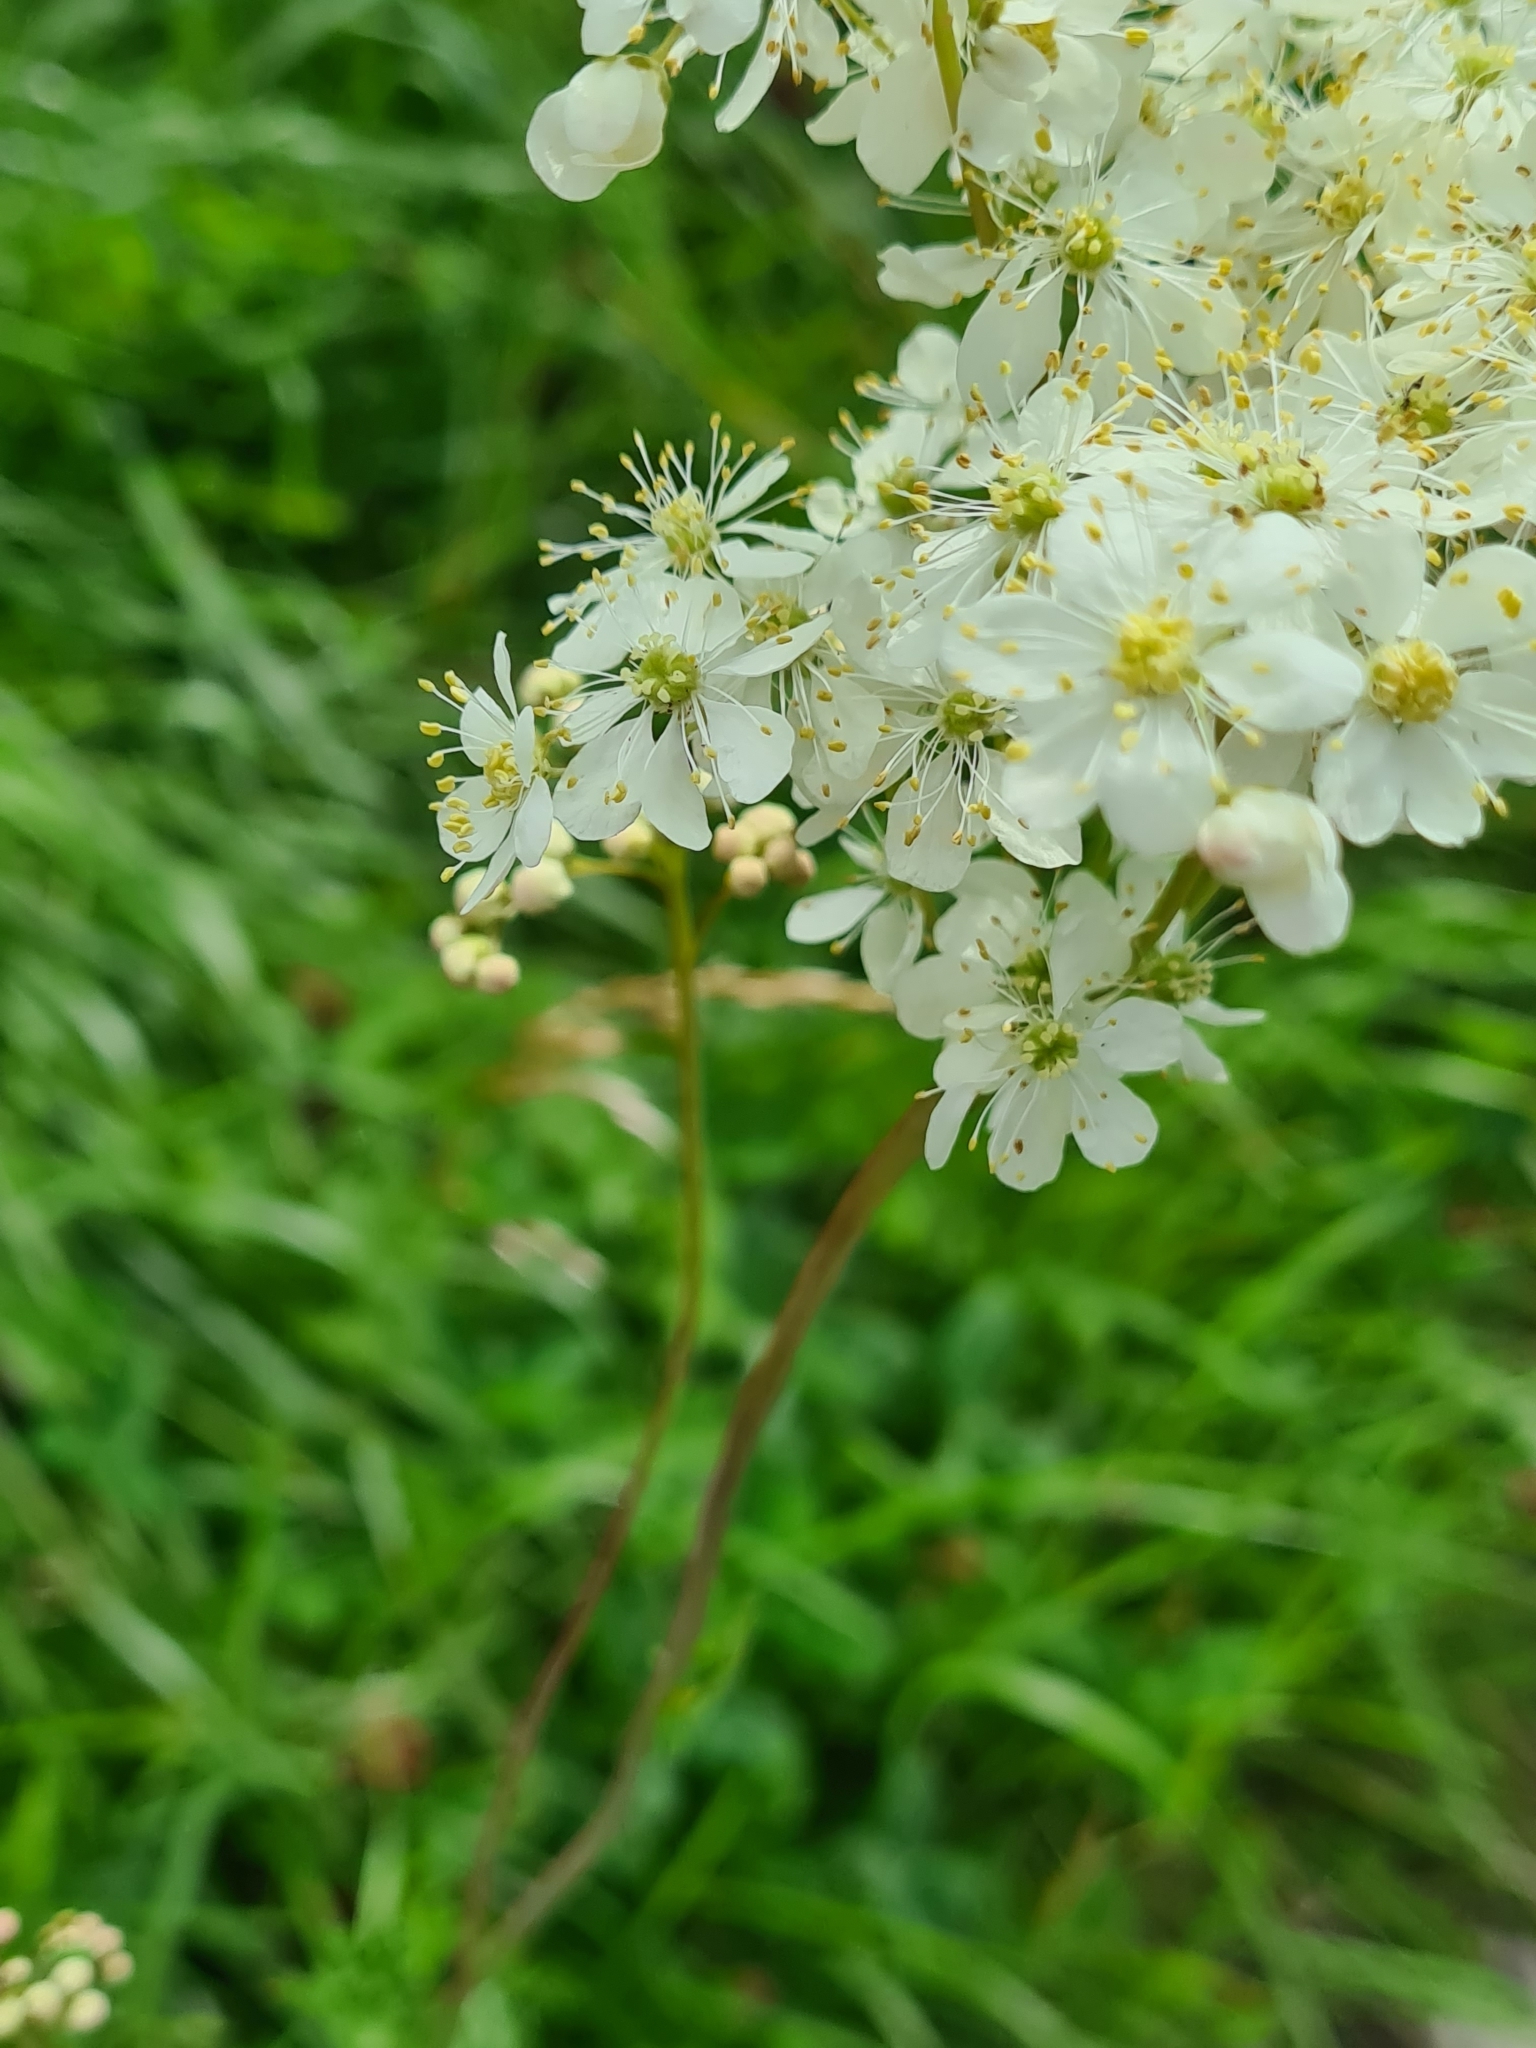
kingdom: Plantae
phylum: Tracheophyta
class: Magnoliopsida
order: Rosales
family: Rosaceae
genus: Filipendula
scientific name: Filipendula vulgaris
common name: Dropwort
